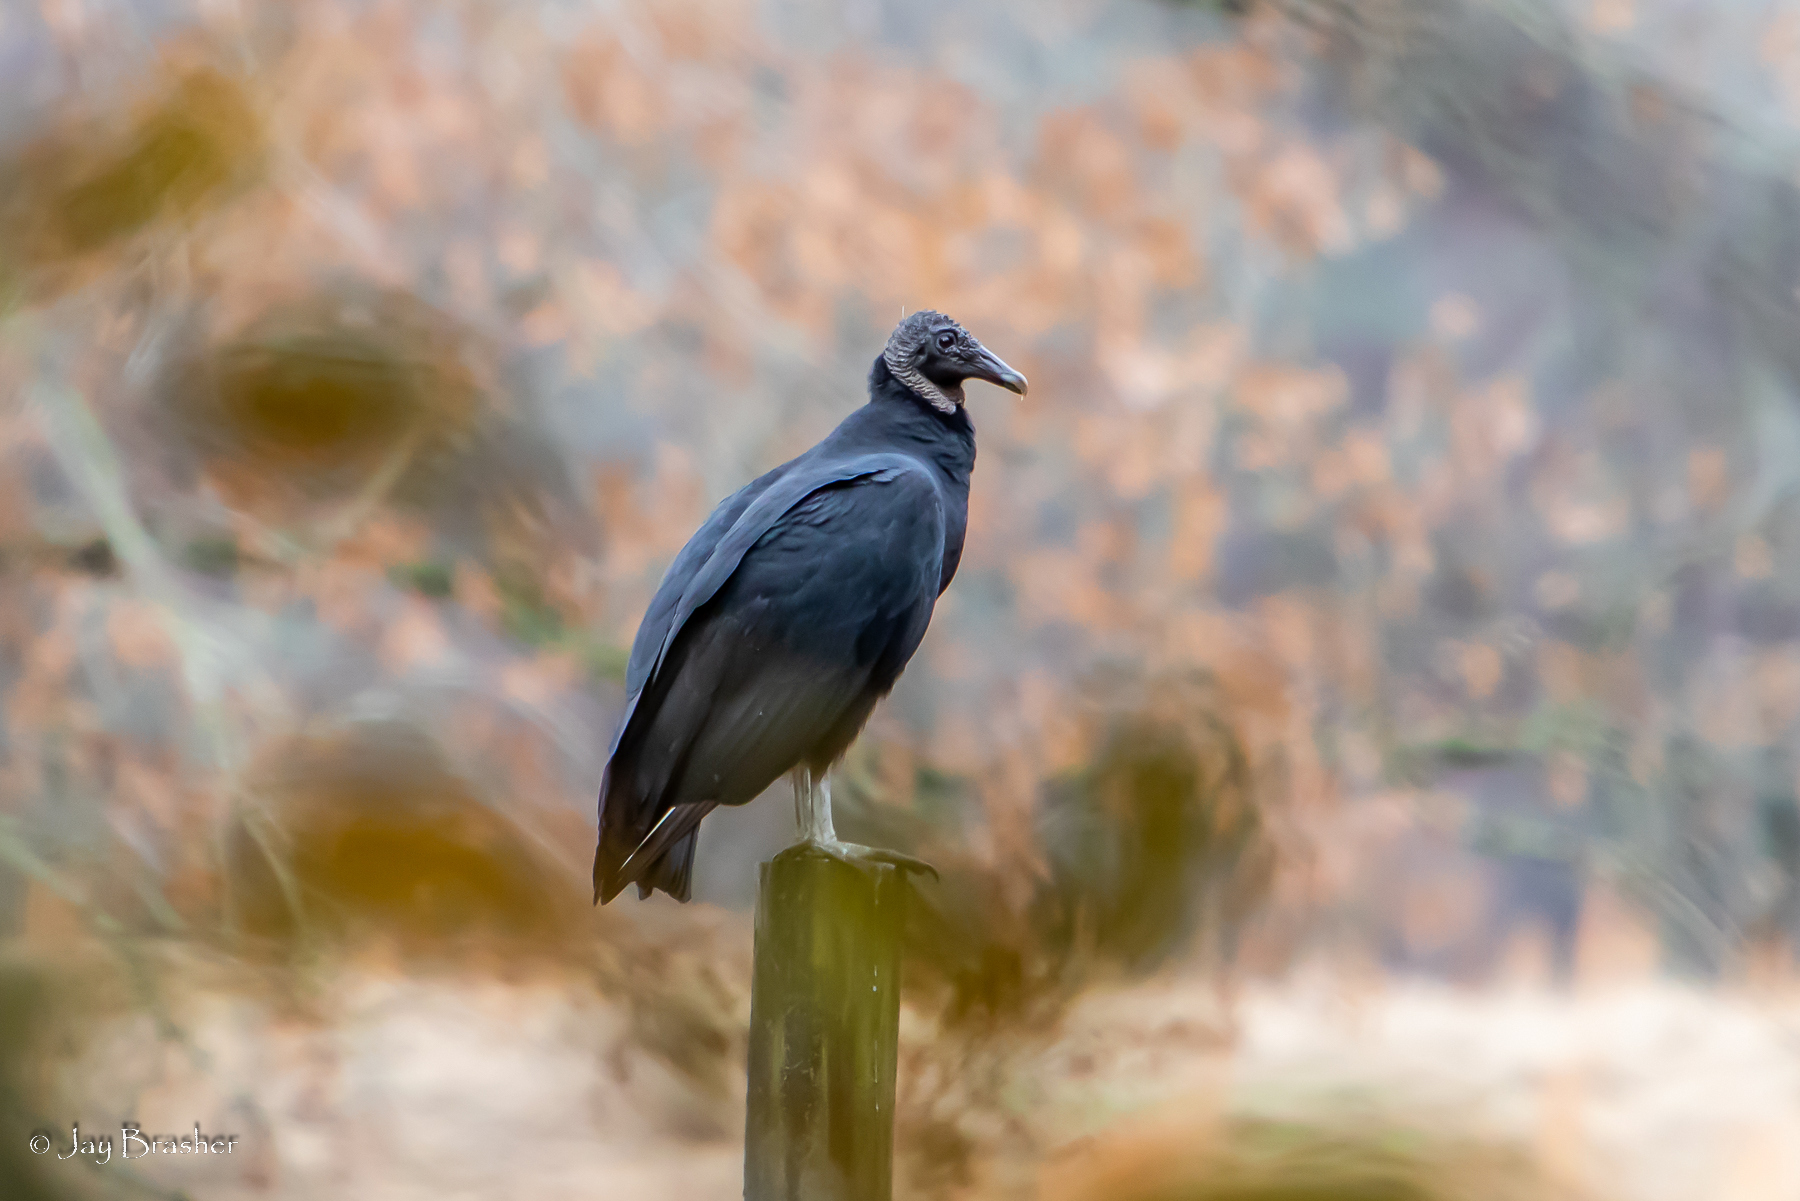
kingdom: Animalia
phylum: Chordata
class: Aves
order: Accipitriformes
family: Cathartidae
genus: Coragyps
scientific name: Coragyps atratus
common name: Black vulture
